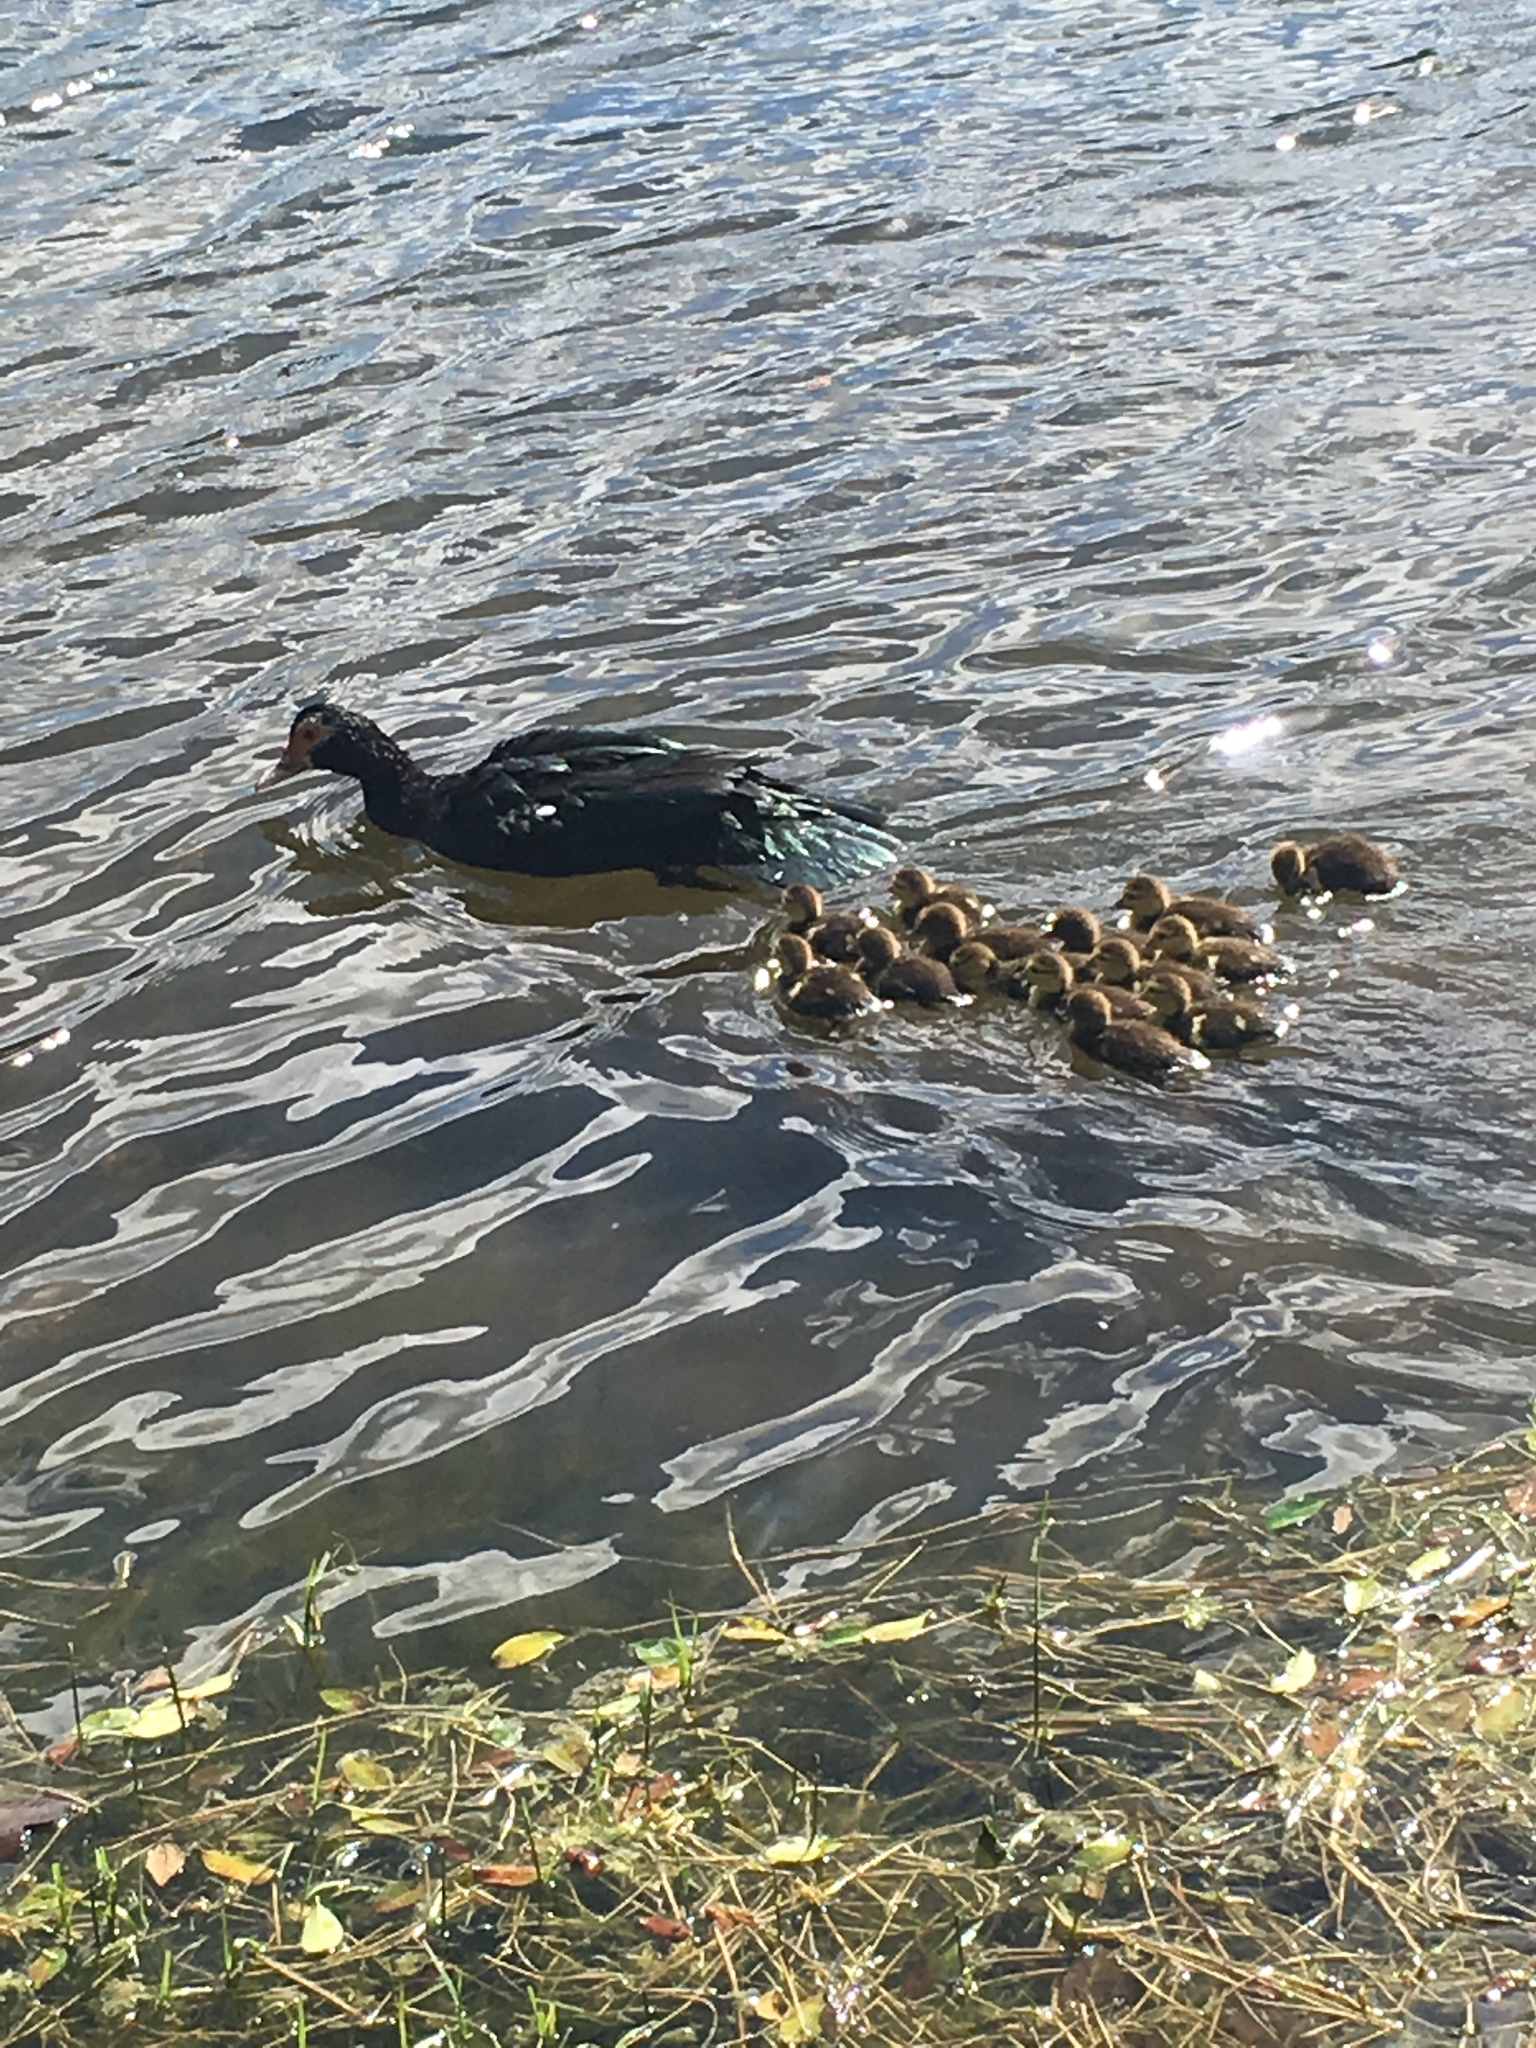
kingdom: Animalia
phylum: Chordata
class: Aves
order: Anseriformes
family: Anatidae
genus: Cairina
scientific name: Cairina moschata
